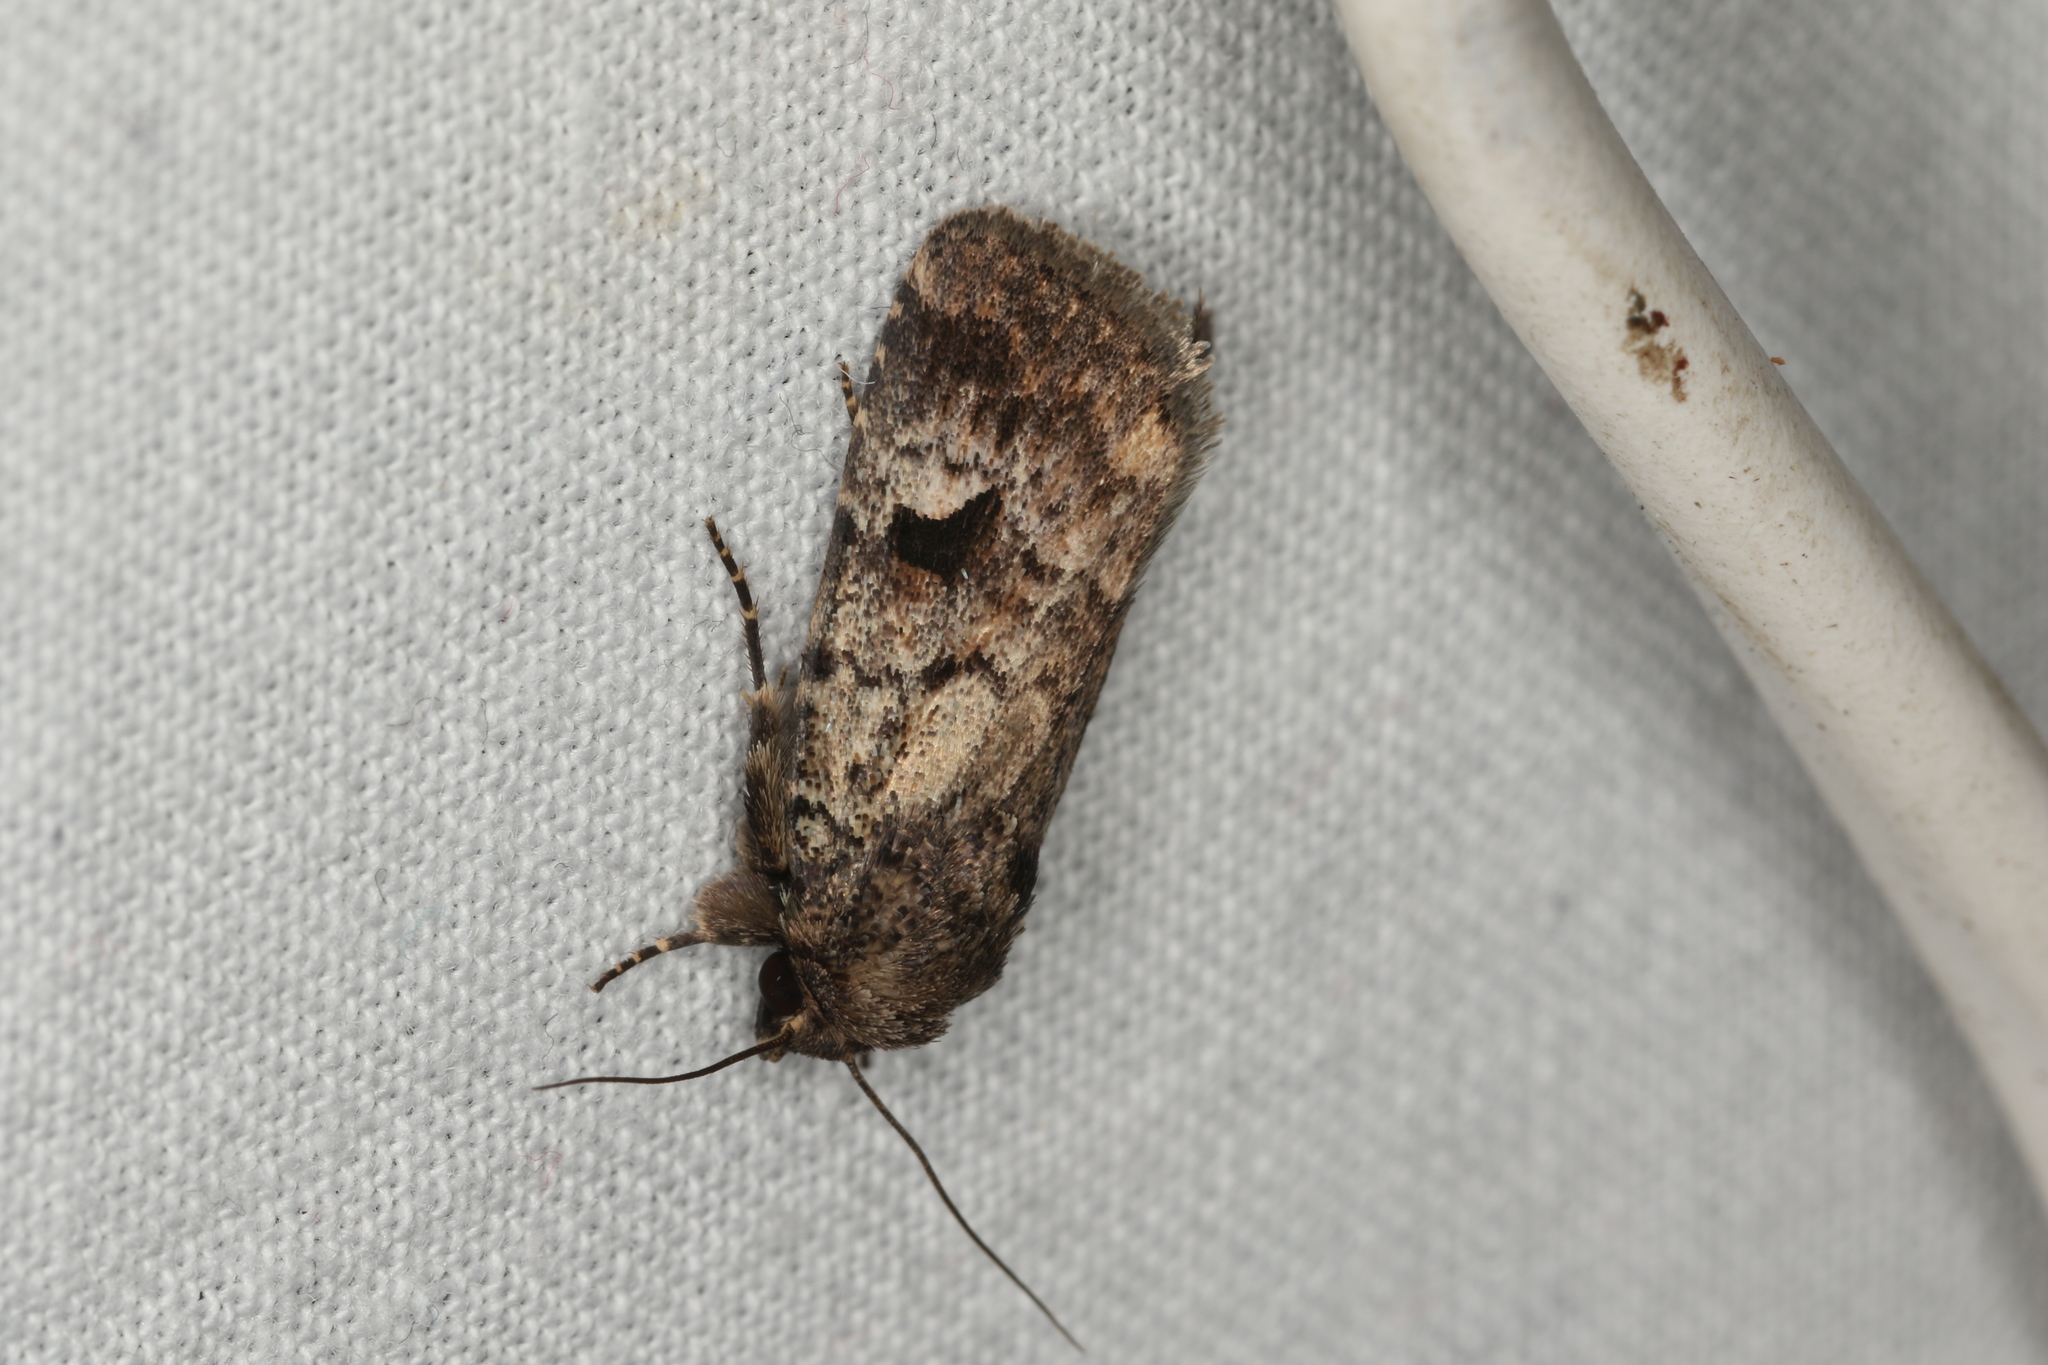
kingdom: Animalia
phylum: Arthropoda
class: Insecta
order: Lepidoptera
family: Noctuidae
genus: Thoracolopha
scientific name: Thoracolopha verecunda
